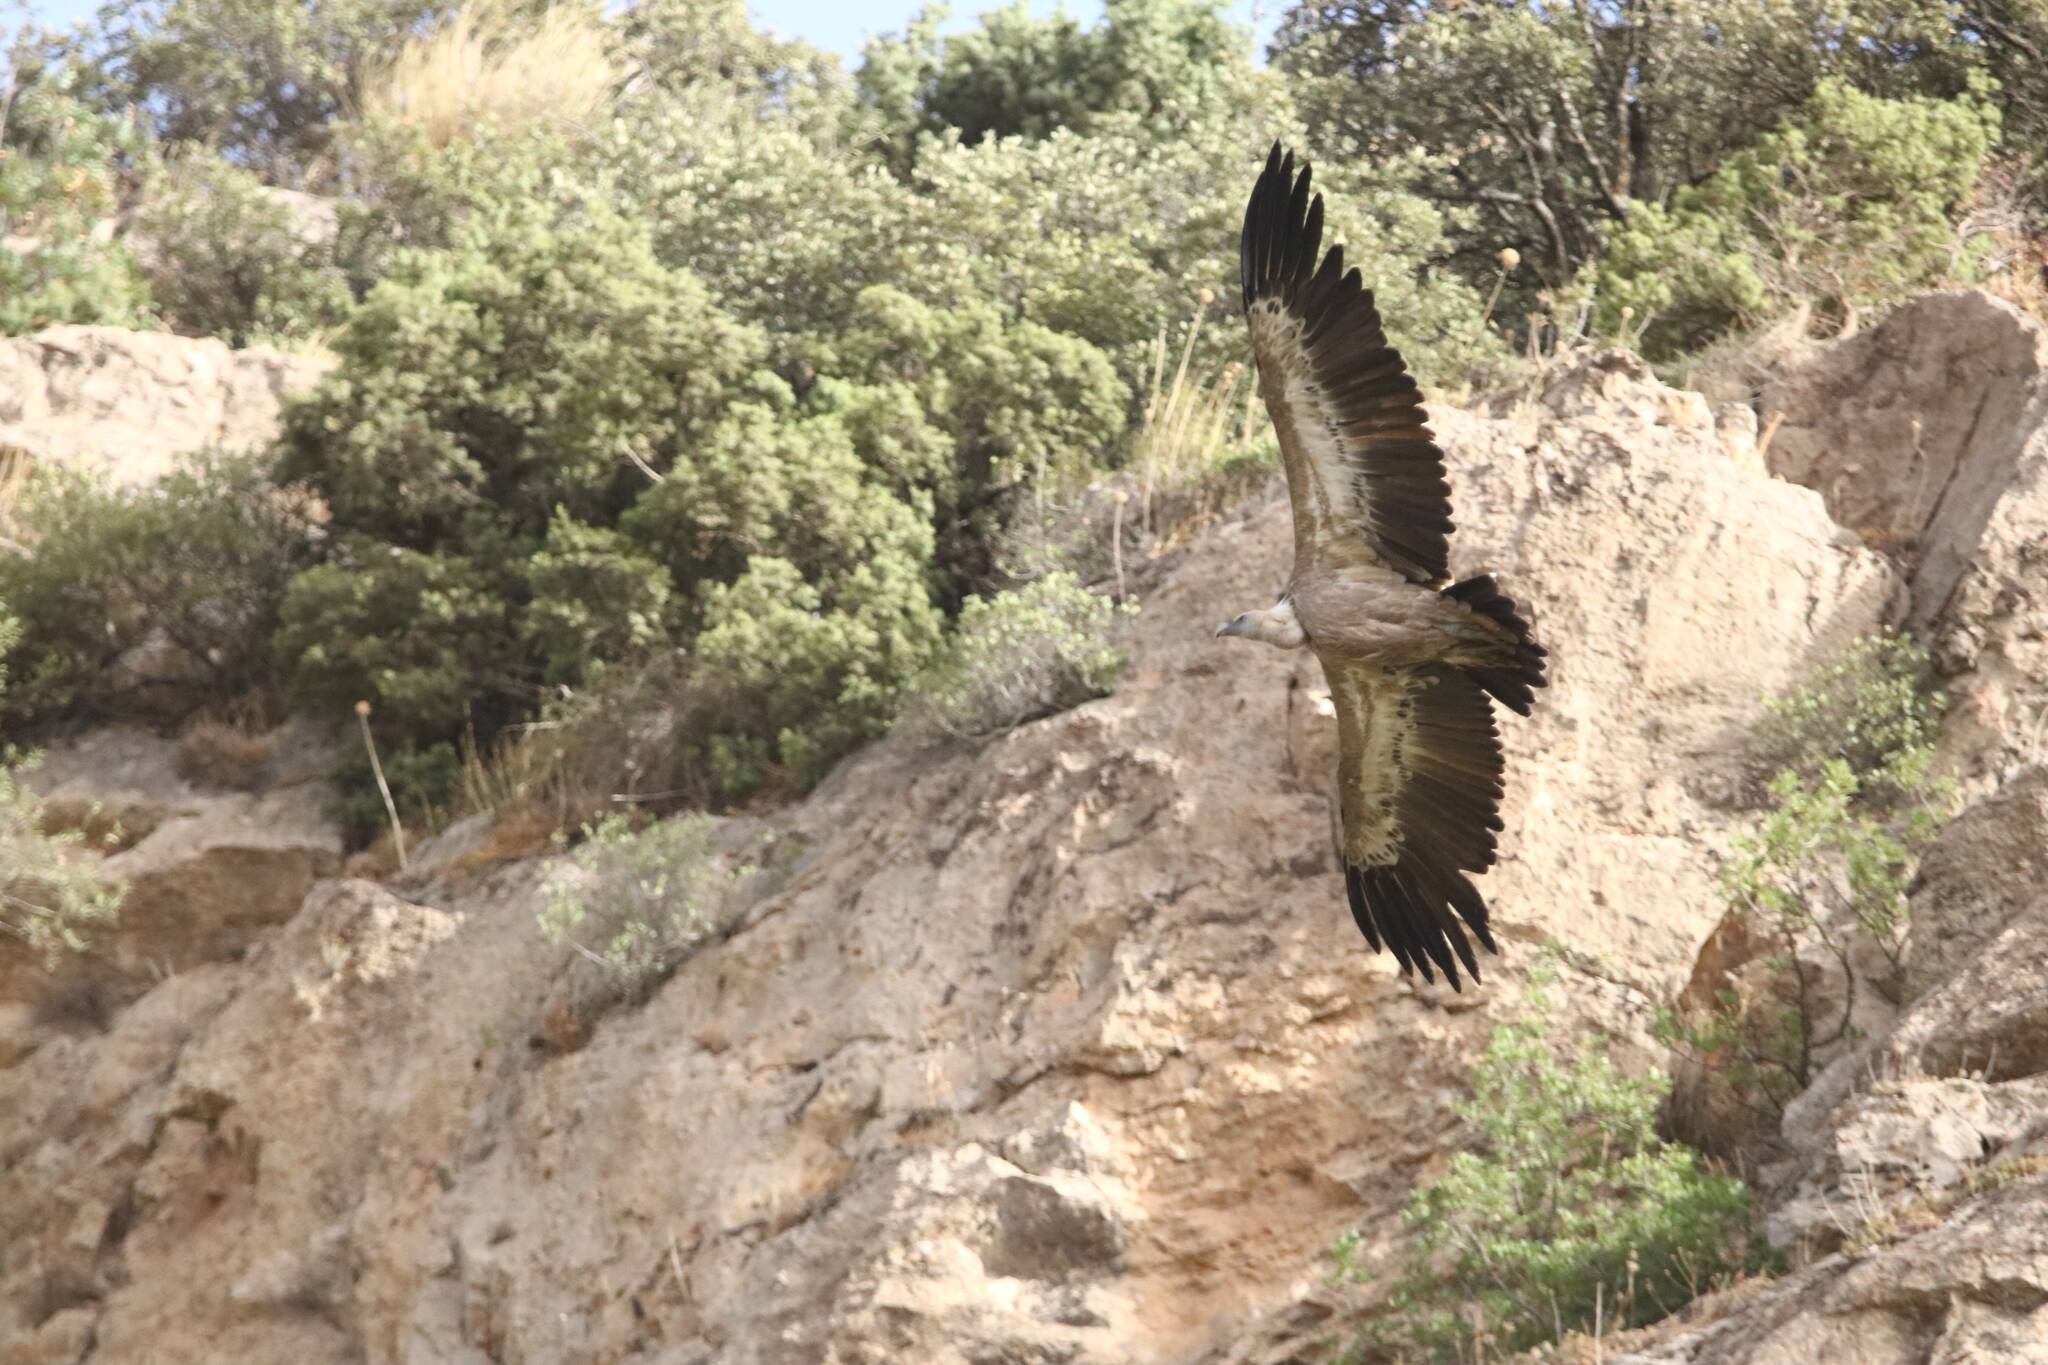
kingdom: Animalia
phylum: Chordata
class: Aves
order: Accipitriformes
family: Accipitridae
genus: Gyps
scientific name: Gyps fulvus
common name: Griffon vulture
